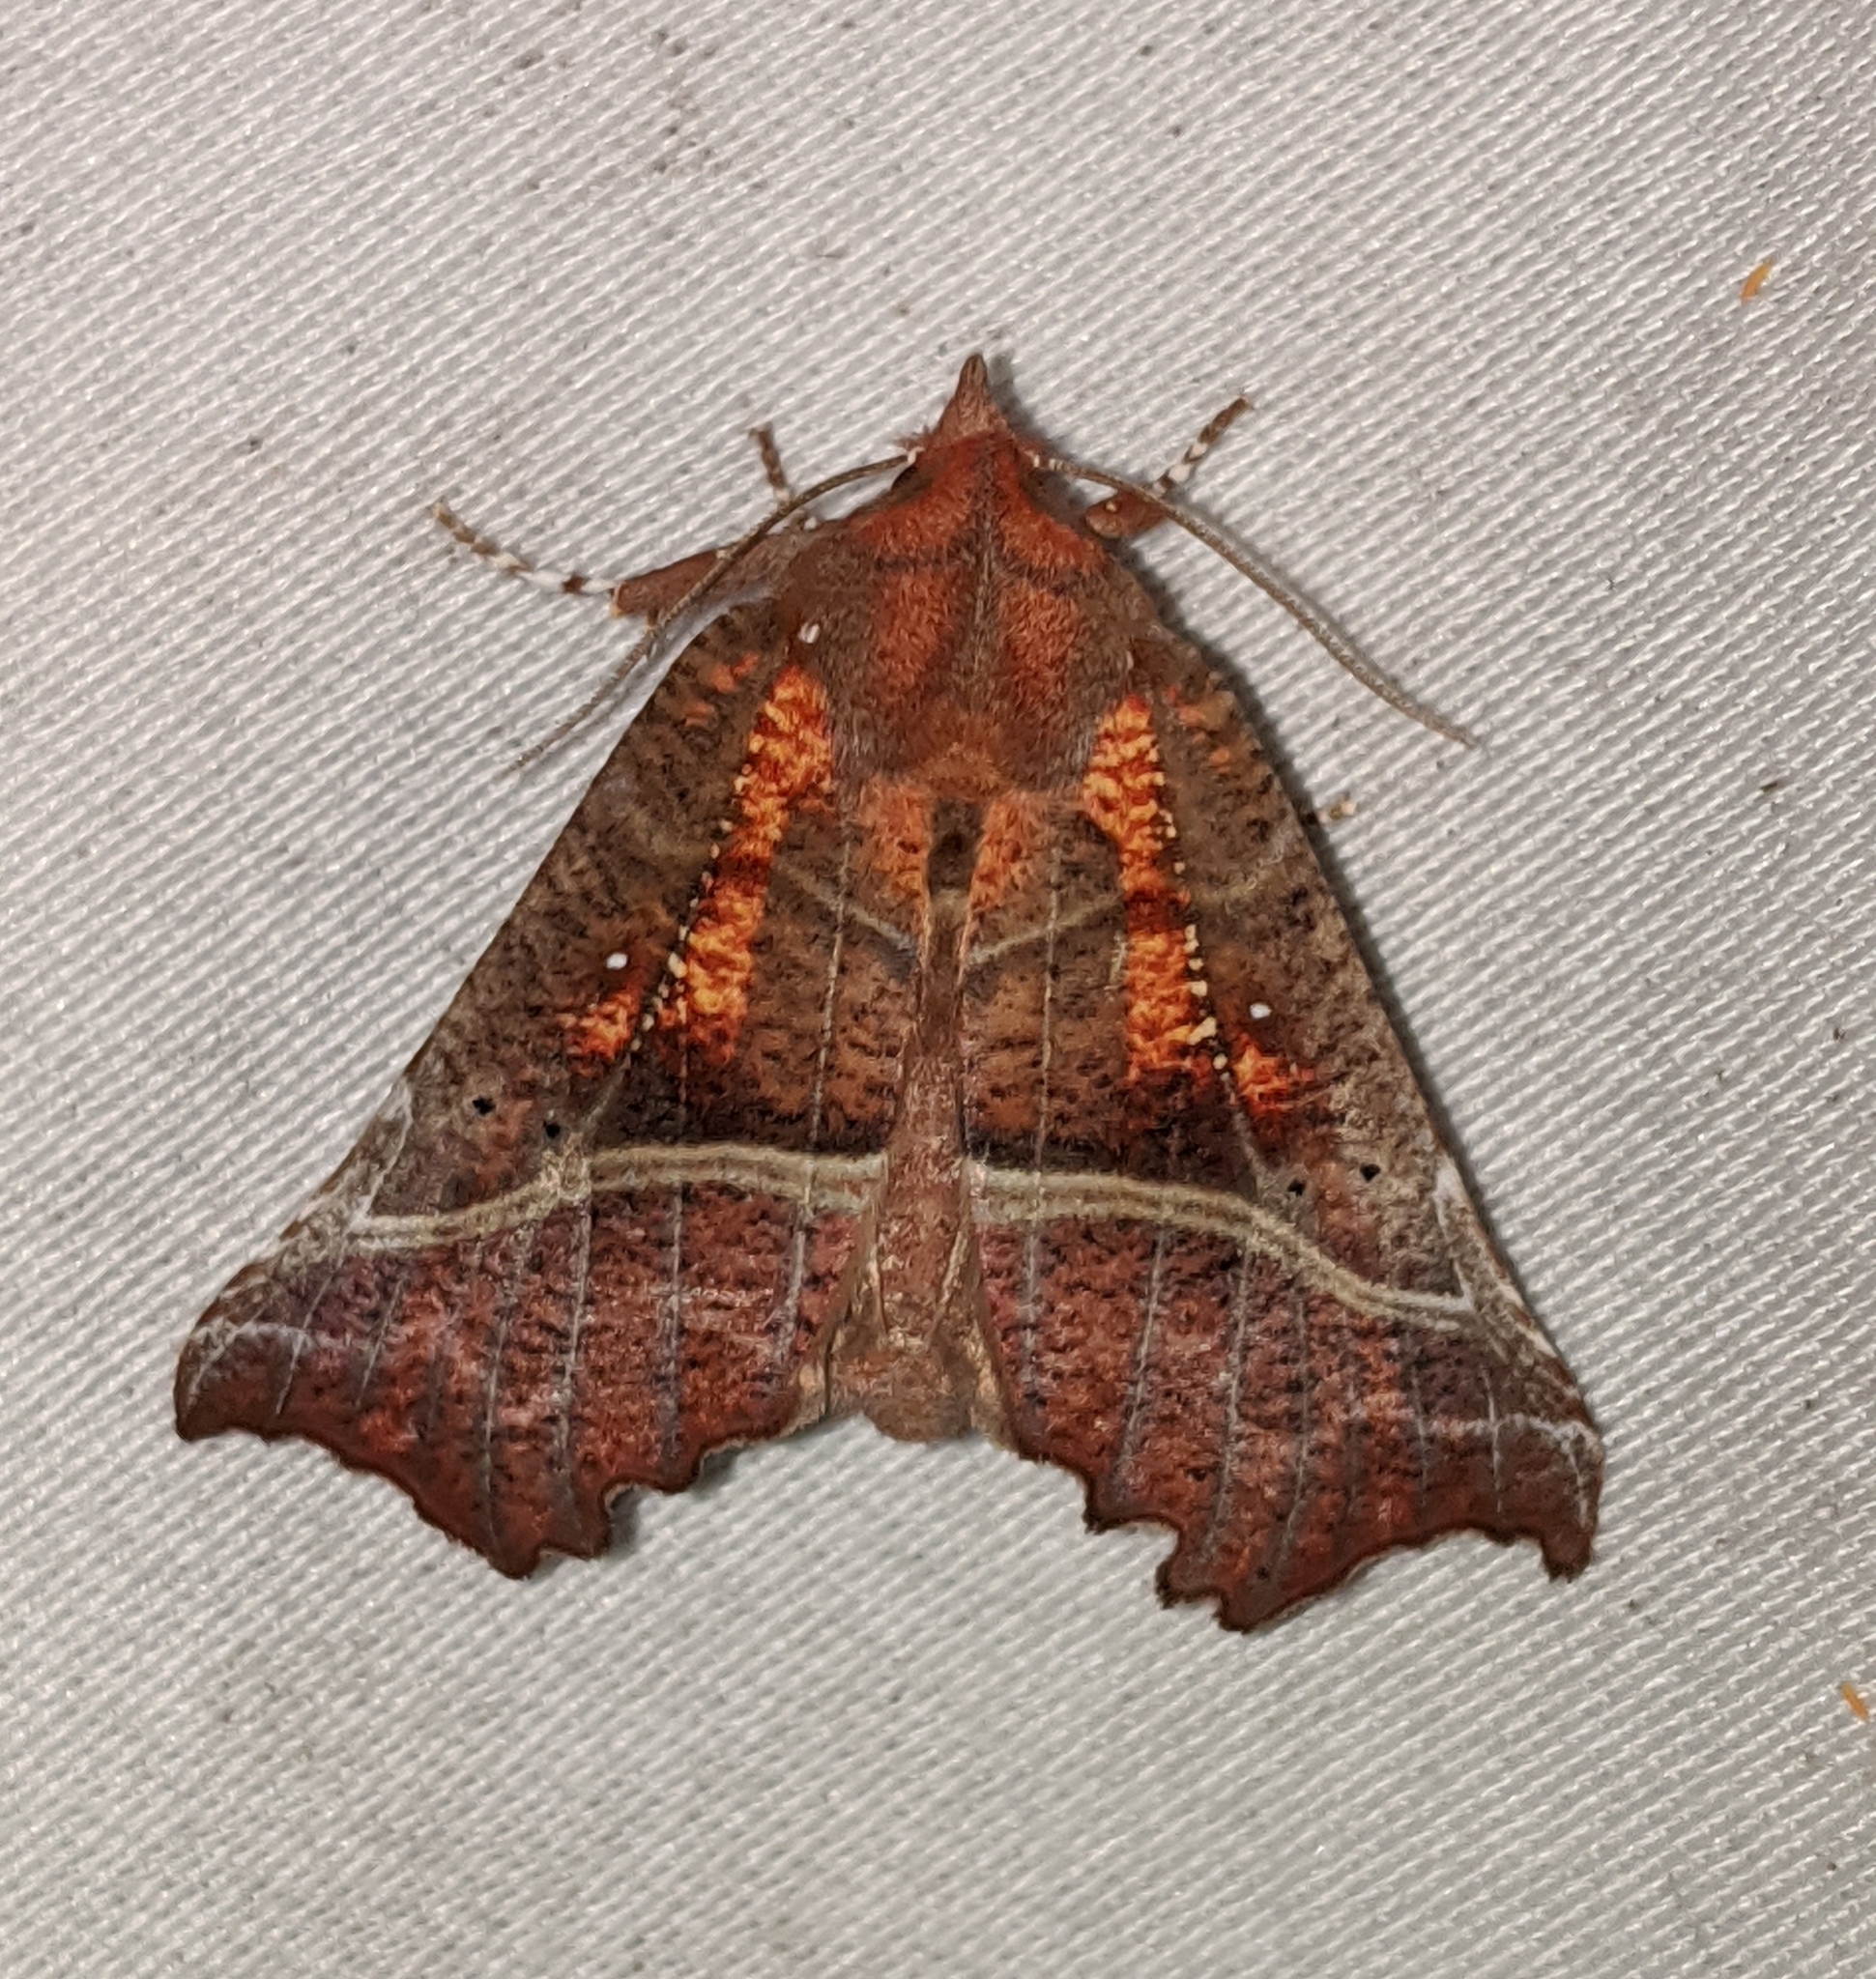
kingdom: Animalia
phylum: Arthropoda
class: Insecta
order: Lepidoptera
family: Erebidae
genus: Scoliopteryx
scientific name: Scoliopteryx libatrix
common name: Herald
